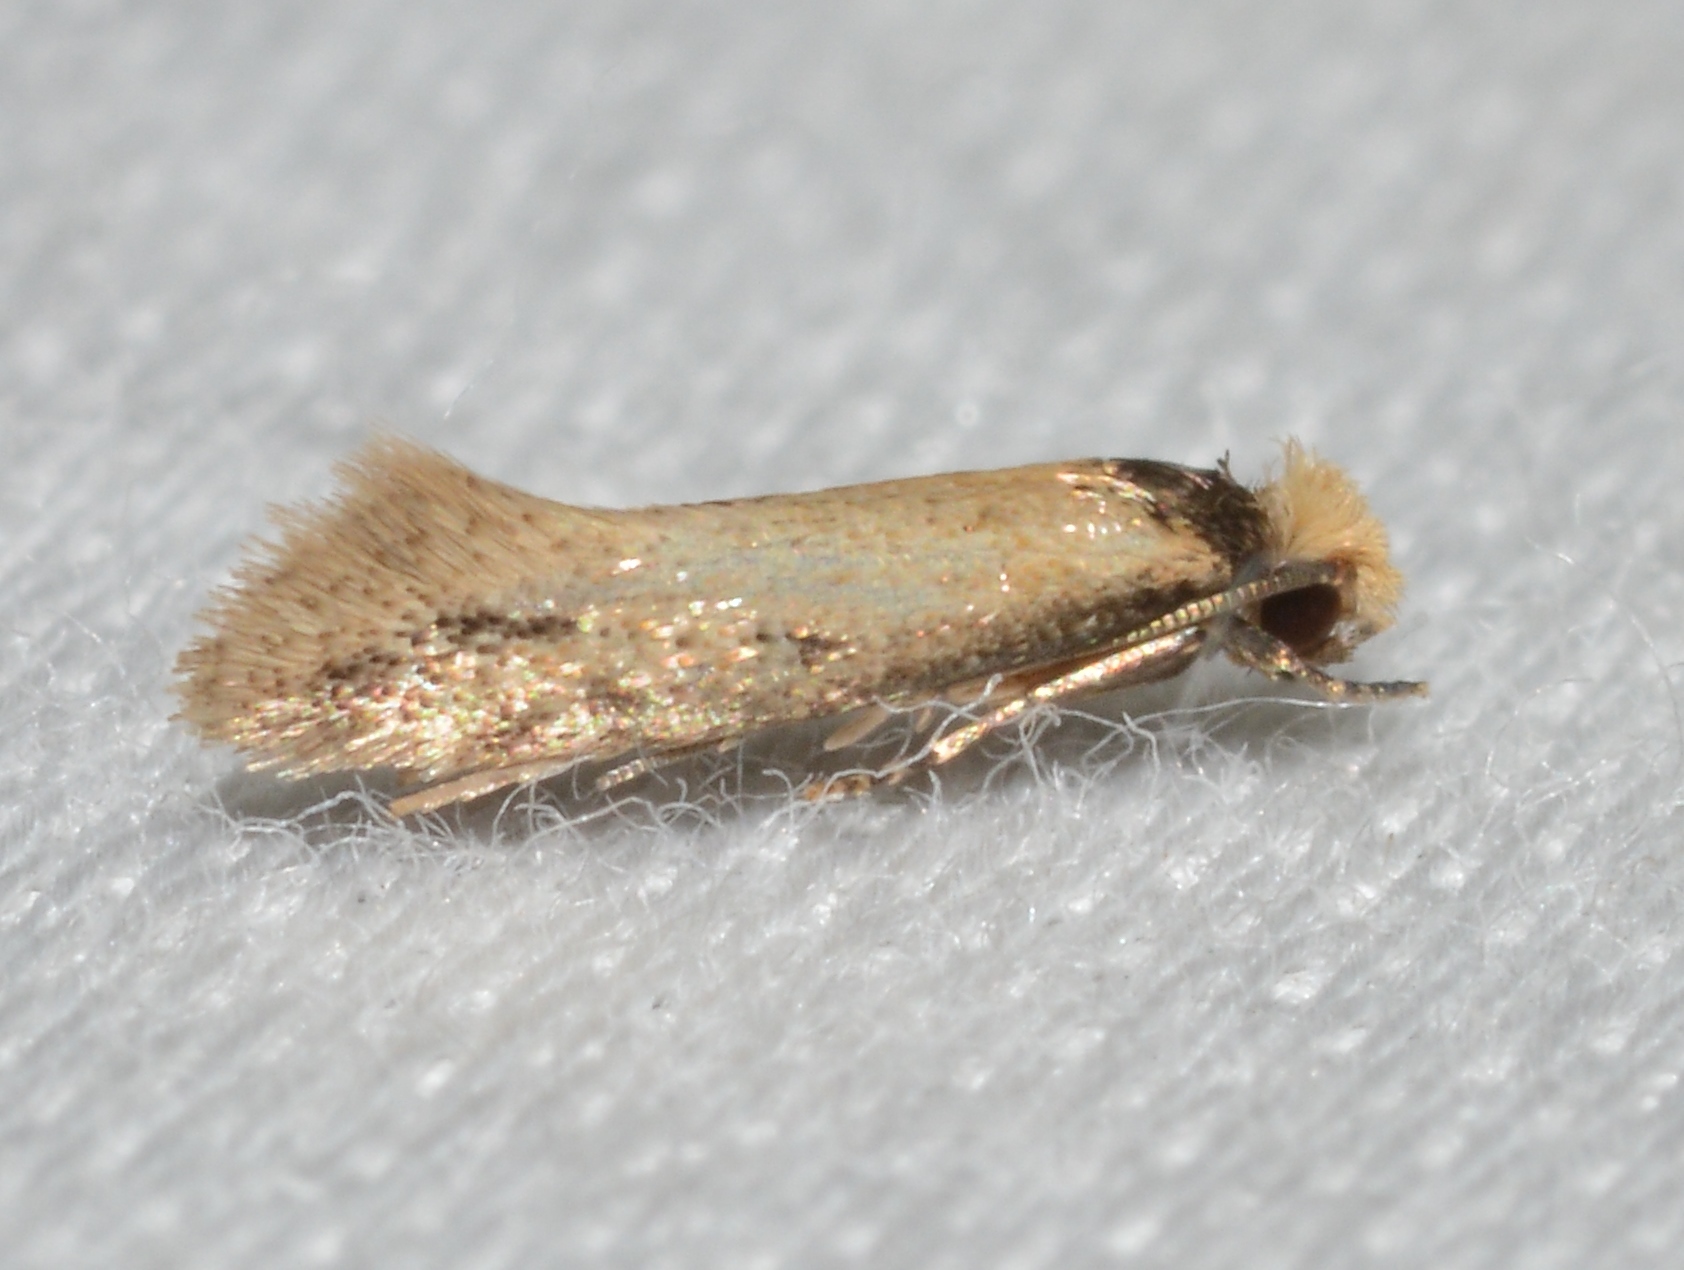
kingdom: Animalia
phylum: Arthropoda
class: Insecta
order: Lepidoptera
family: Meessiidae
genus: Homostinea
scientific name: Homostinea curviliniella
